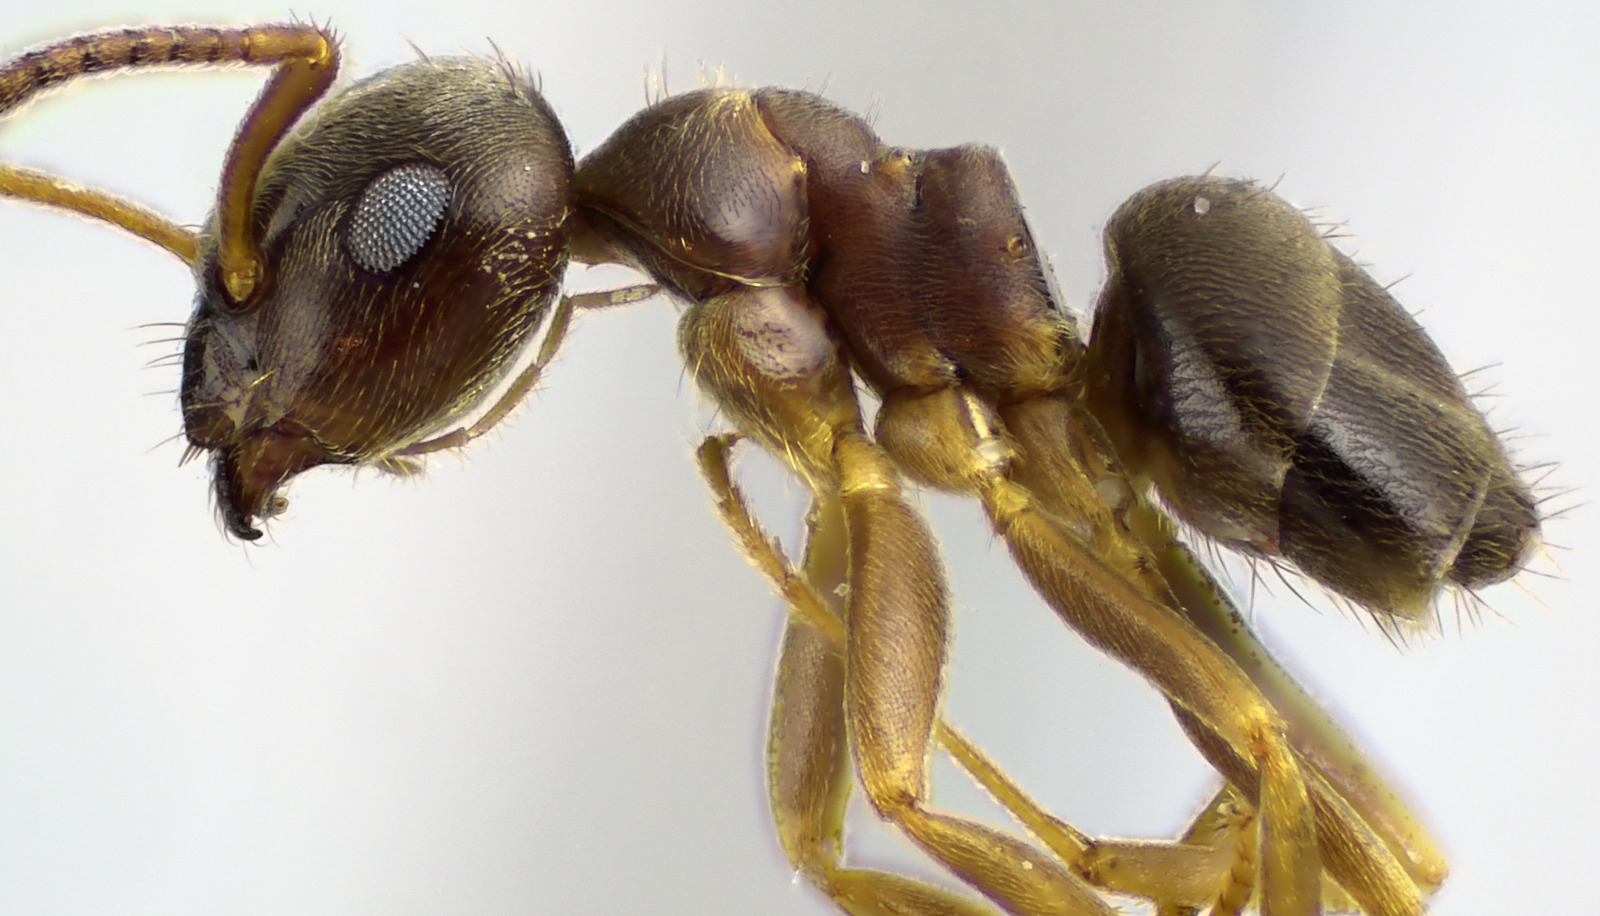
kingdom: Animalia
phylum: Arthropoda
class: Insecta
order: Hymenoptera
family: Formicidae
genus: Lasius
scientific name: Lasius americanus
